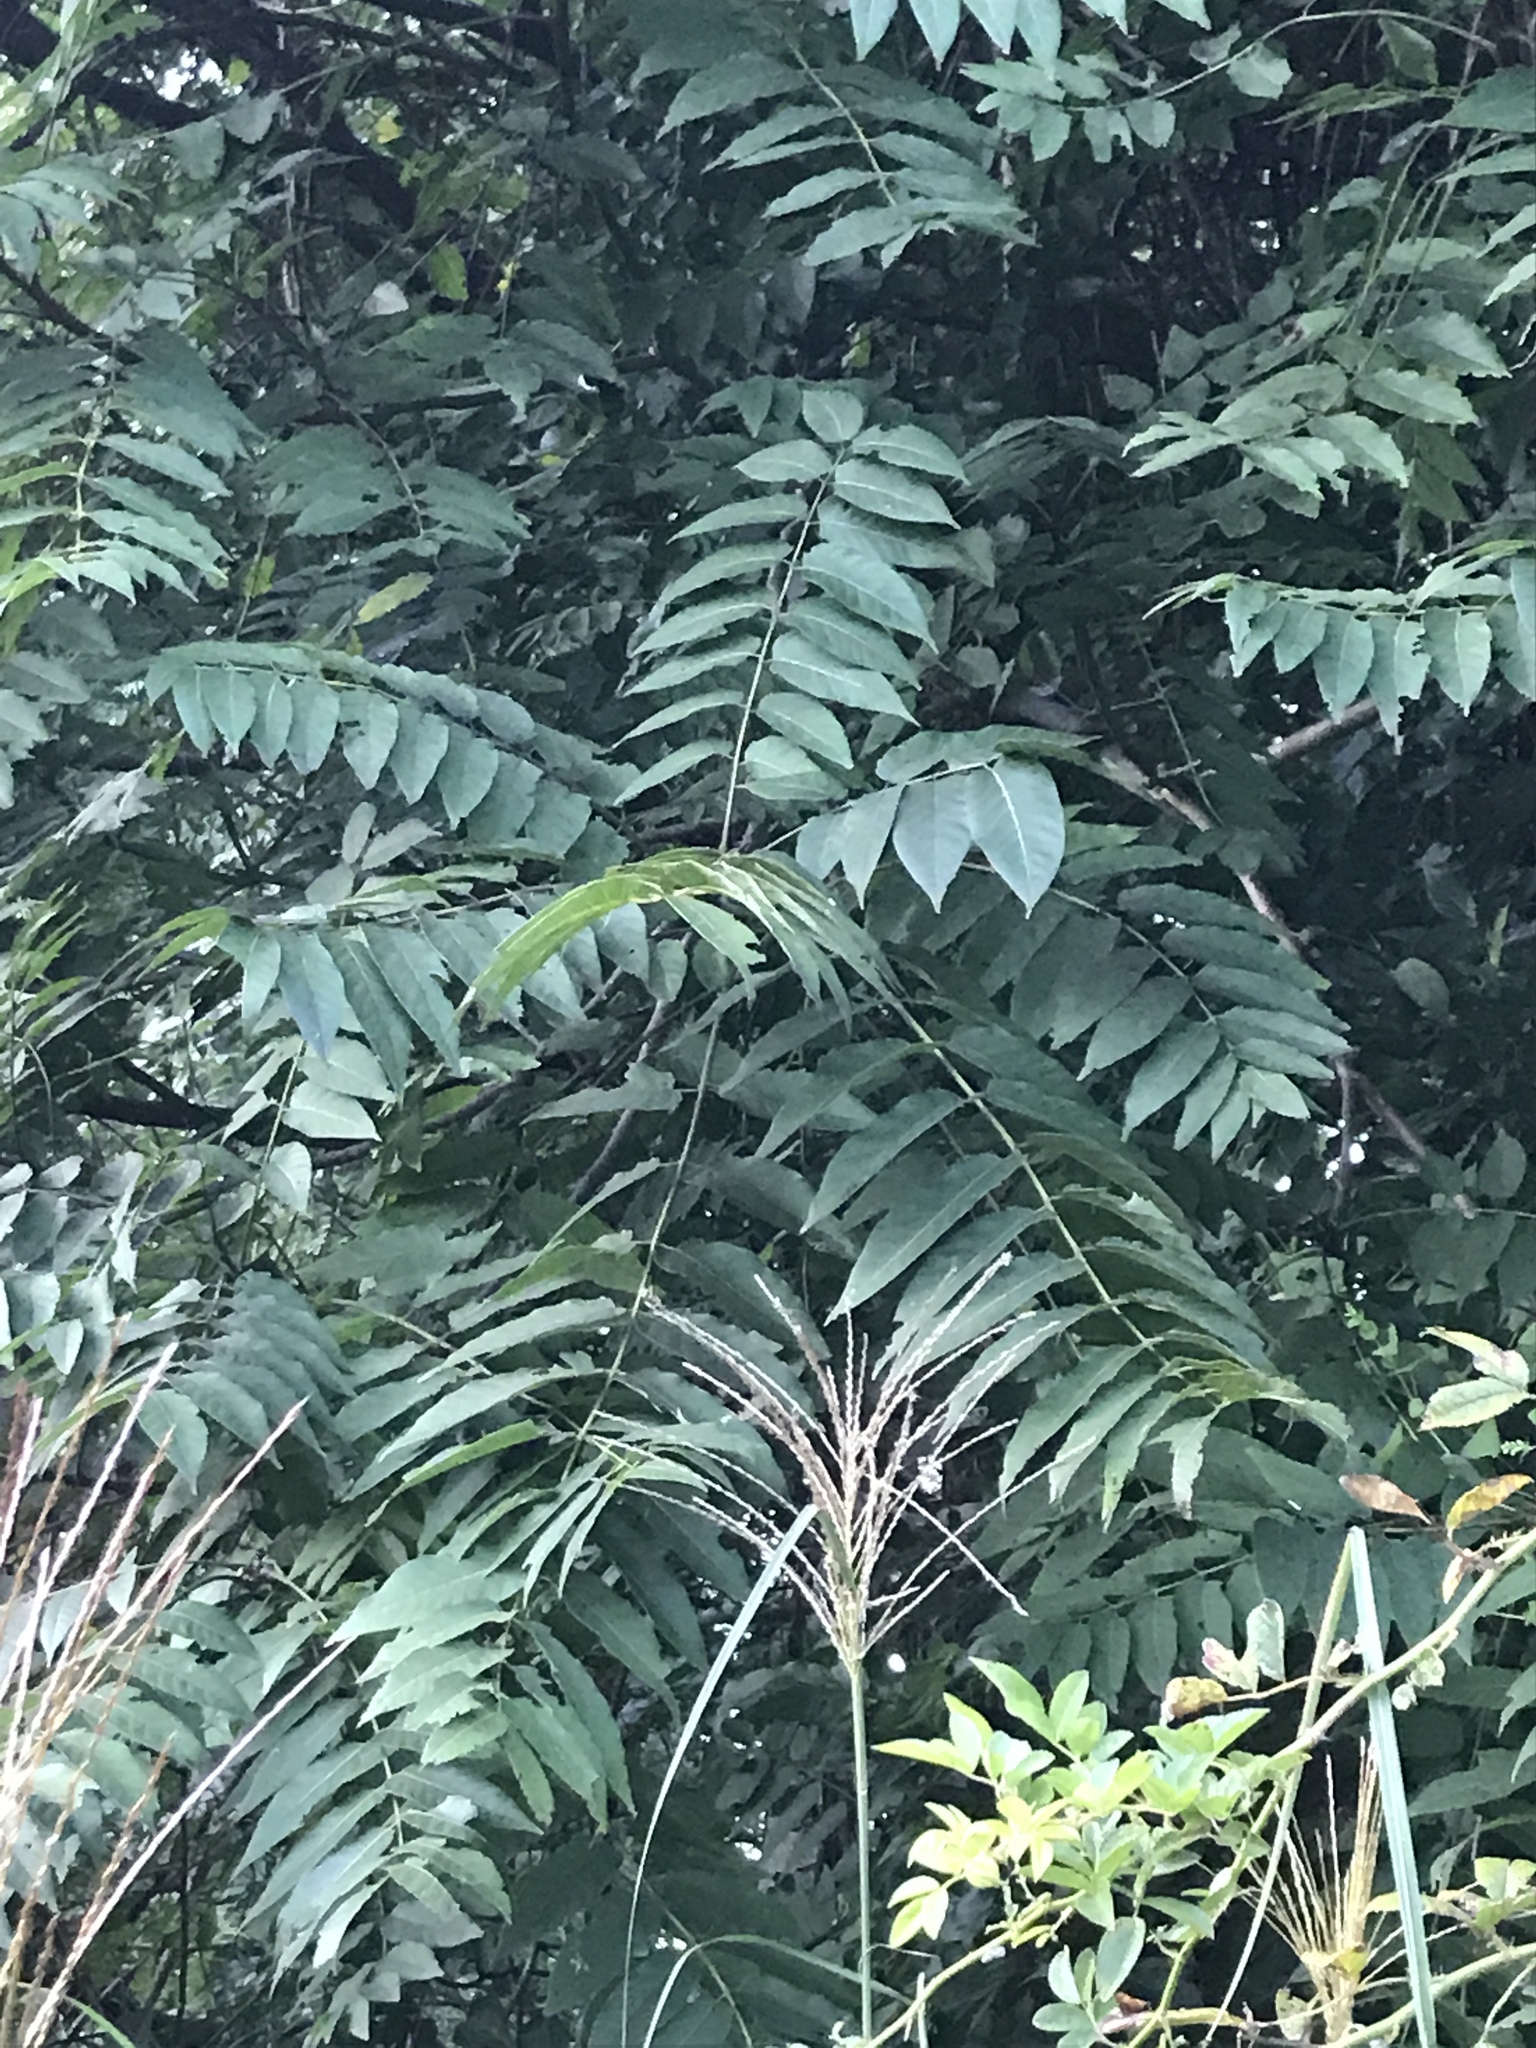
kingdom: Plantae
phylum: Tracheophyta
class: Magnoliopsida
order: Sapindales
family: Simaroubaceae
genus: Ailanthus
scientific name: Ailanthus altissima
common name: Tree-of-heaven
